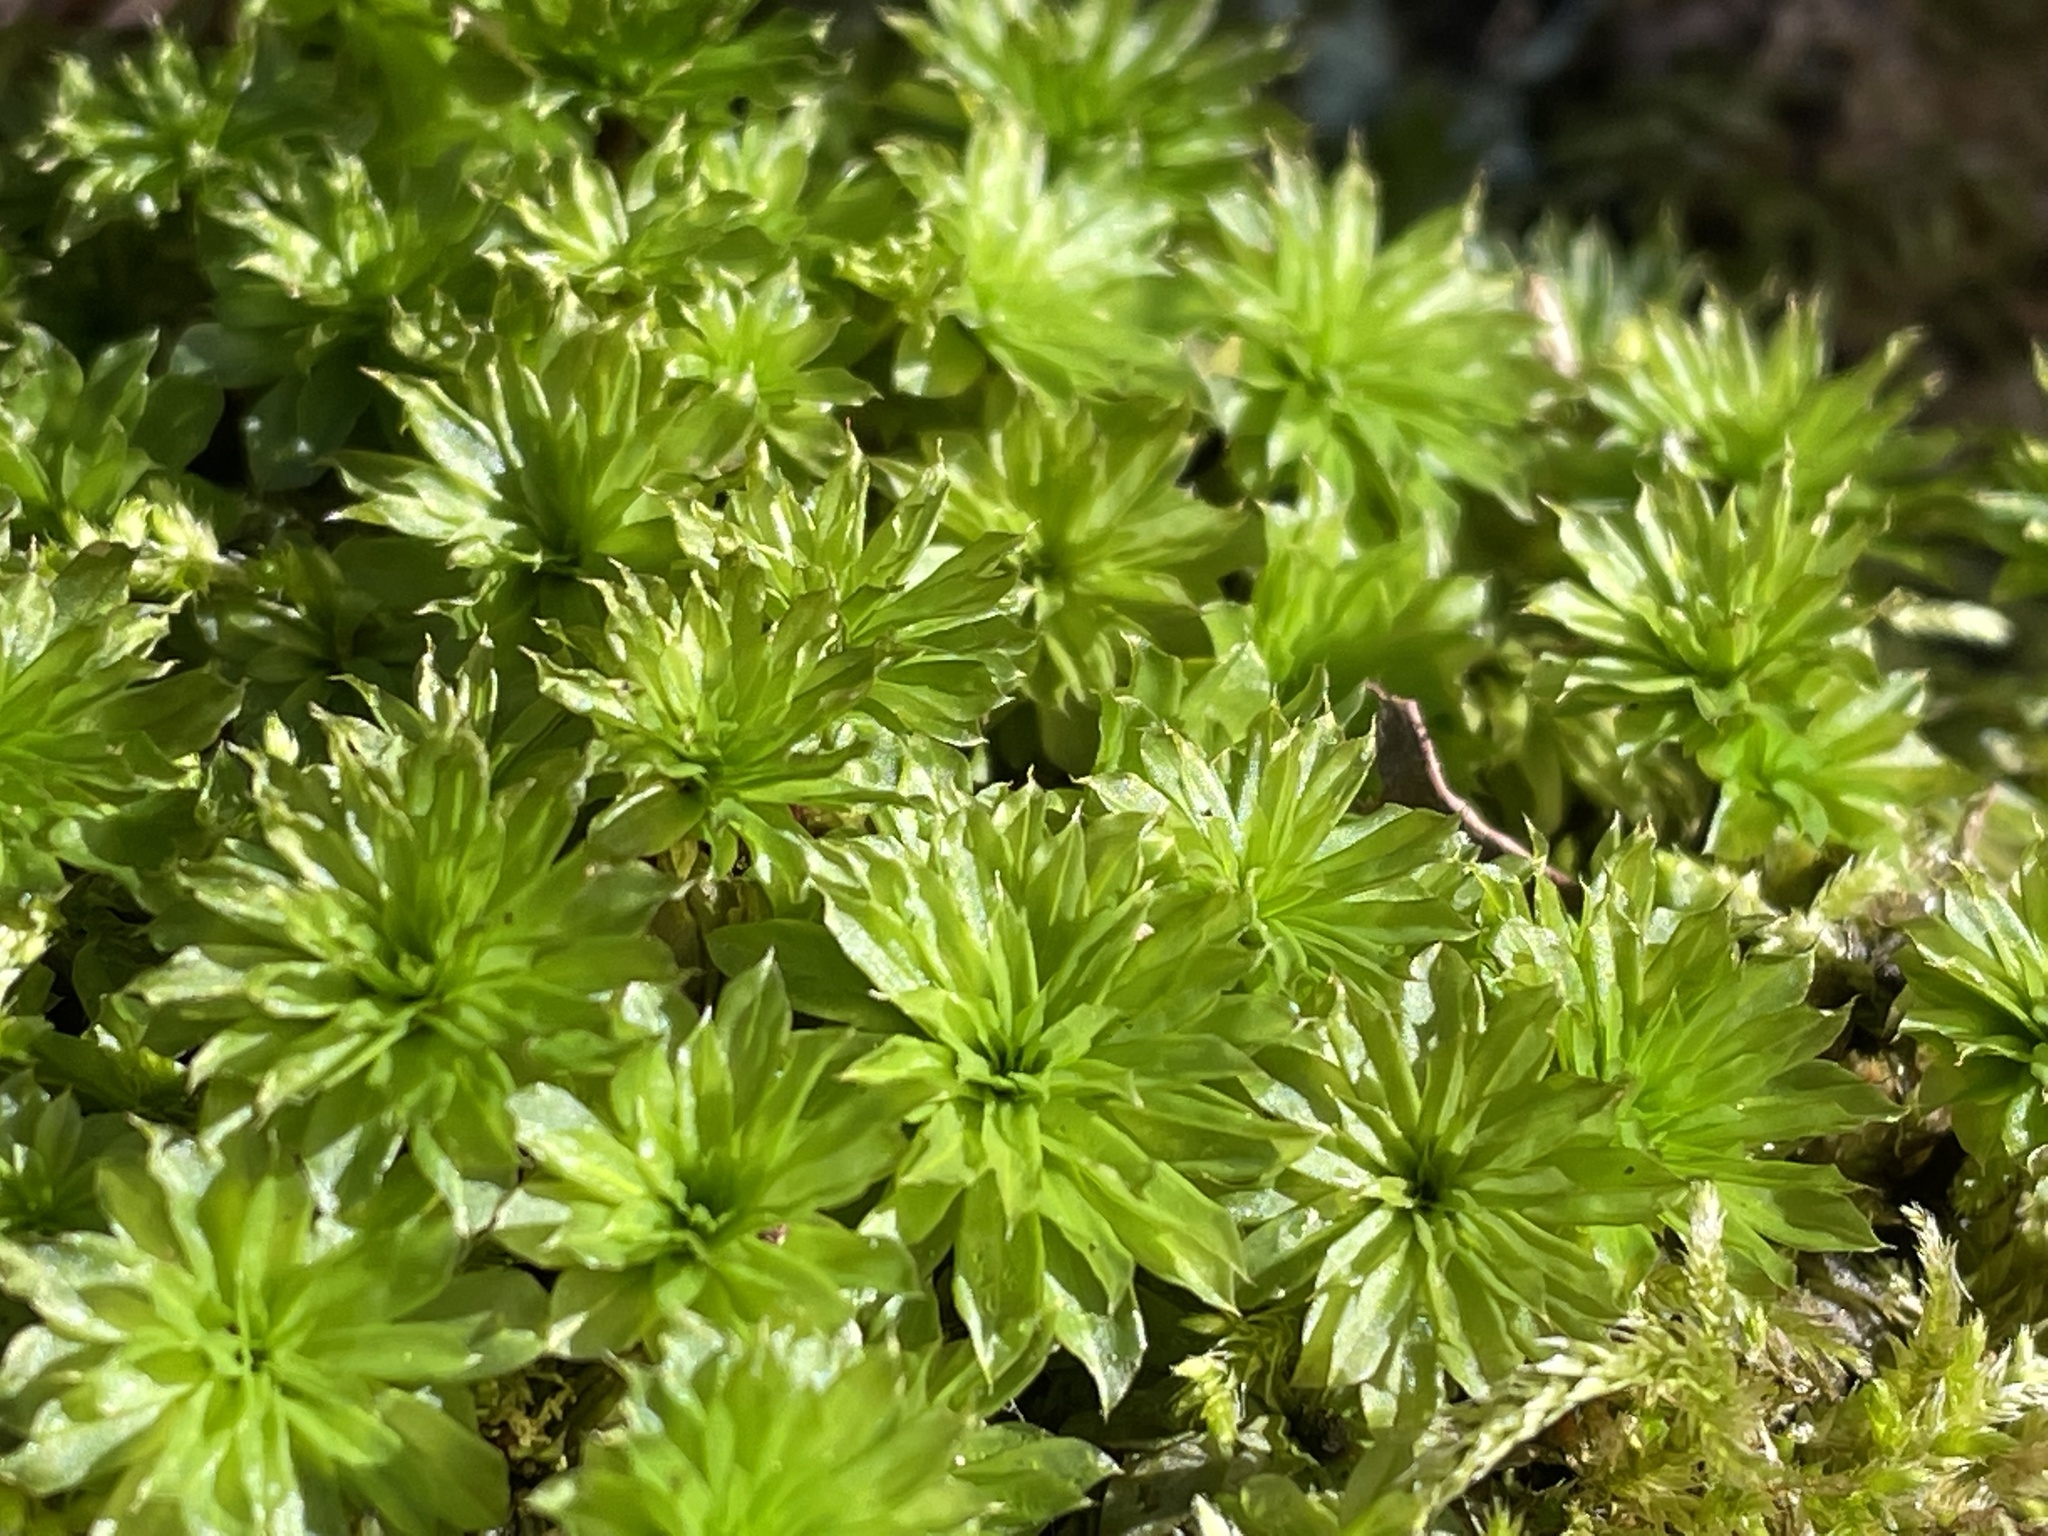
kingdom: Plantae
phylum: Bryophyta
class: Bryopsida
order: Bryales
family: Bryaceae
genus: Rhodobryum
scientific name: Rhodobryum ontariense
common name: Ontario rhodobryum moss
